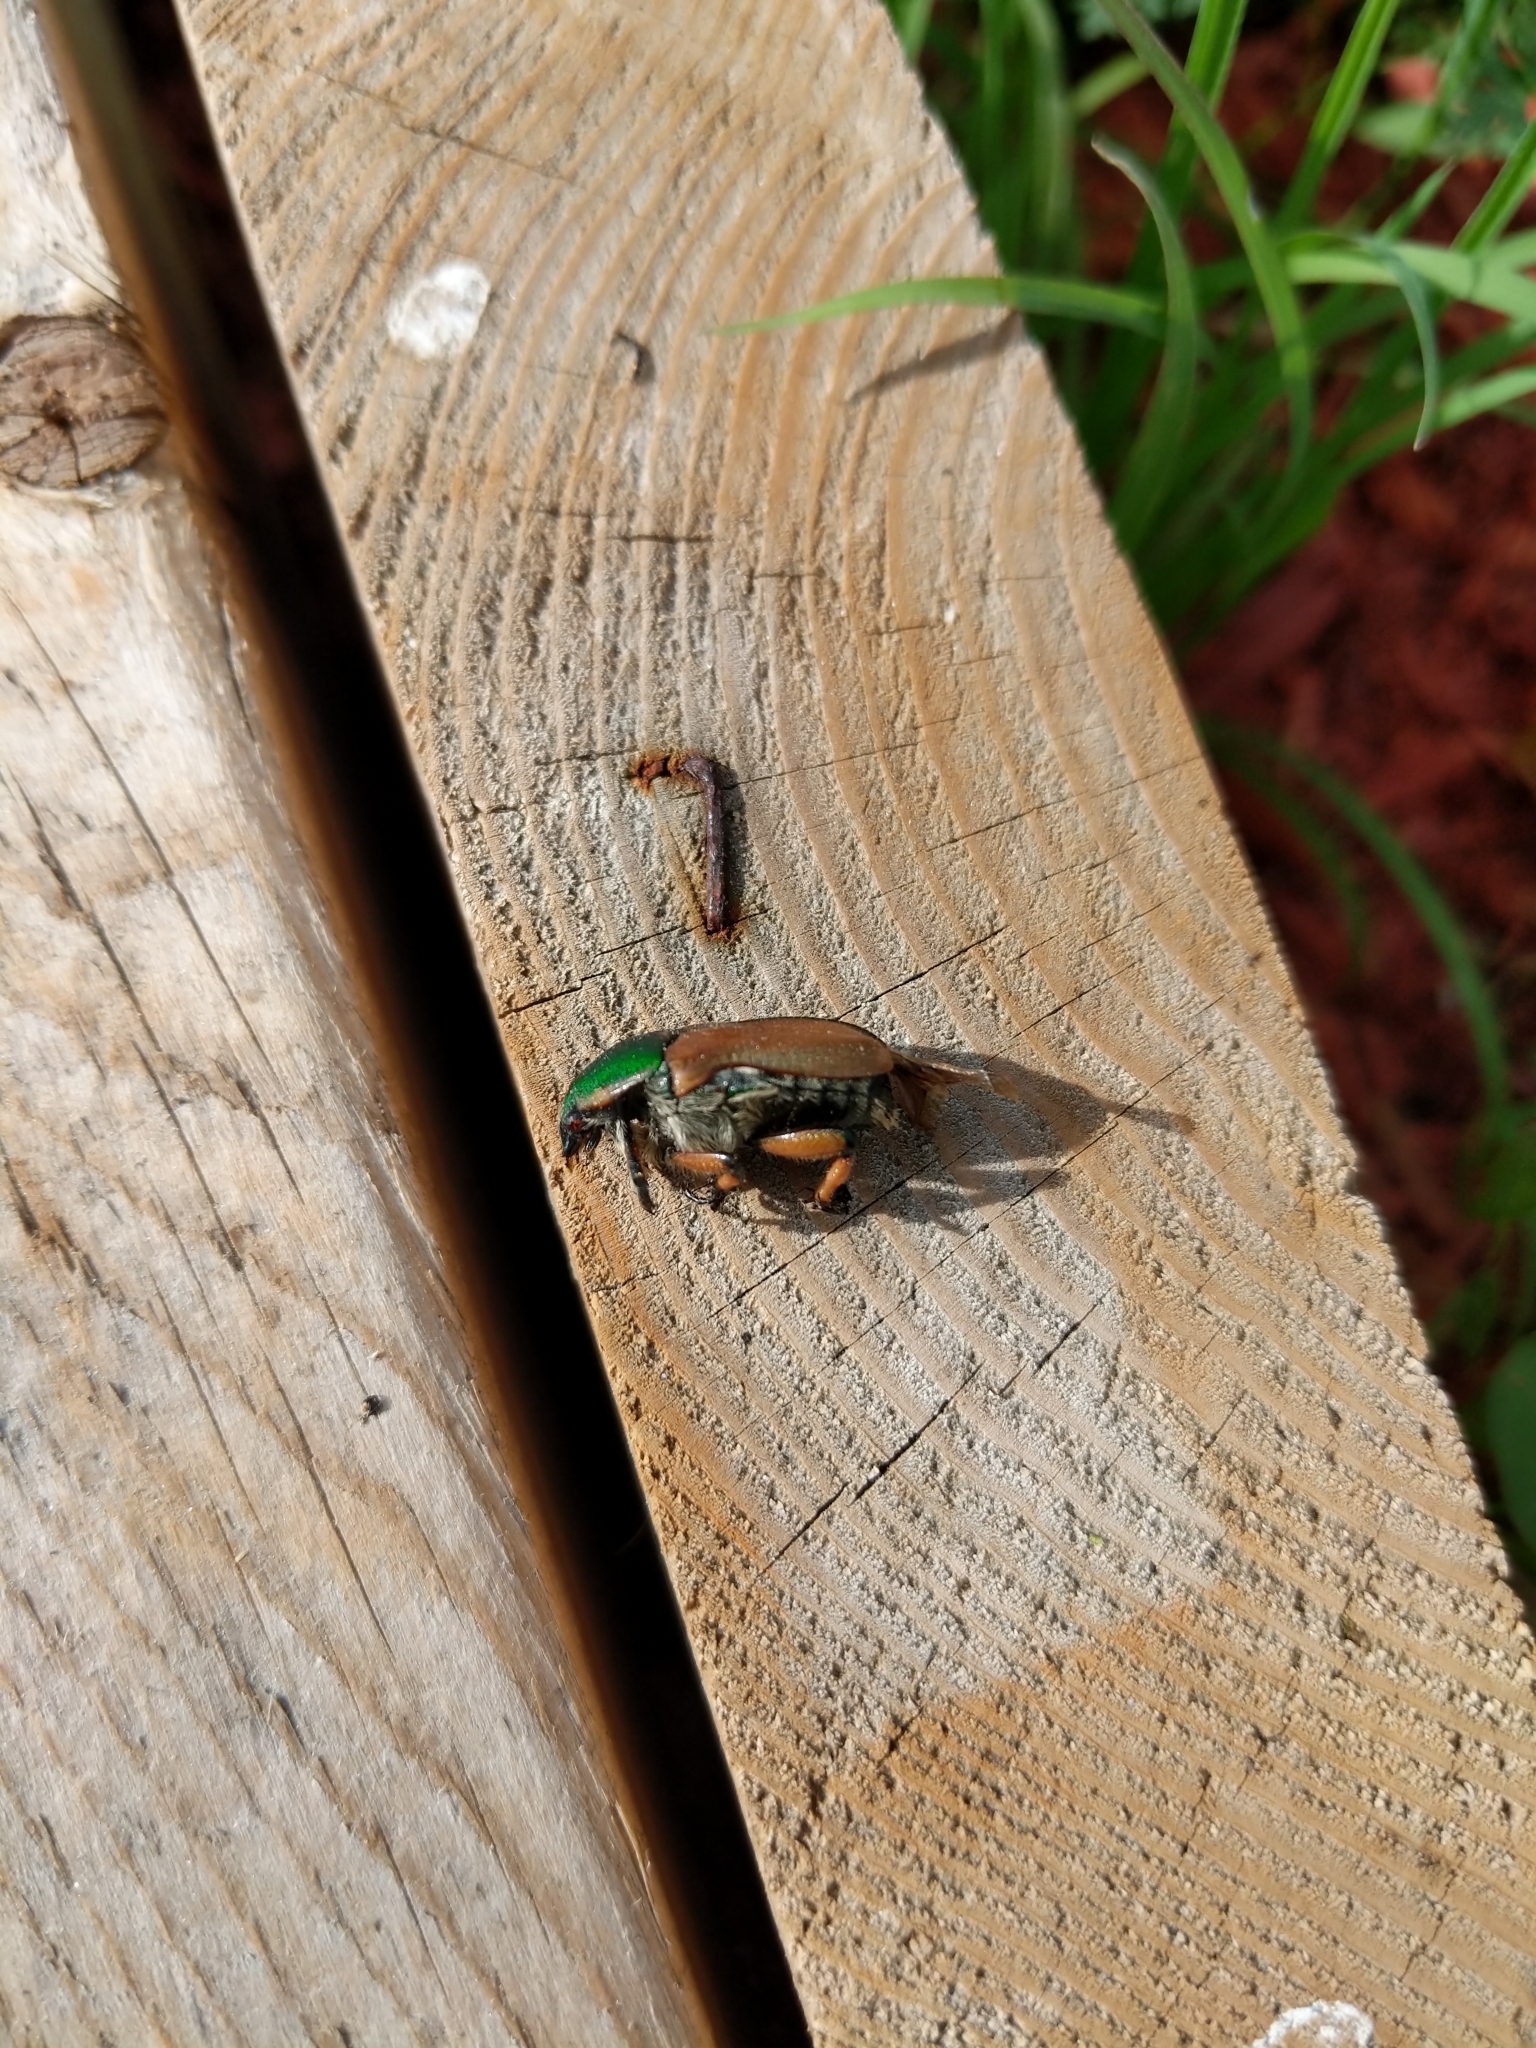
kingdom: Animalia
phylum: Arthropoda
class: Insecta
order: Coleoptera
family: Scarabaeidae
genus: Euphoria
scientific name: Euphoria fulgida
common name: Emerald euphoria
